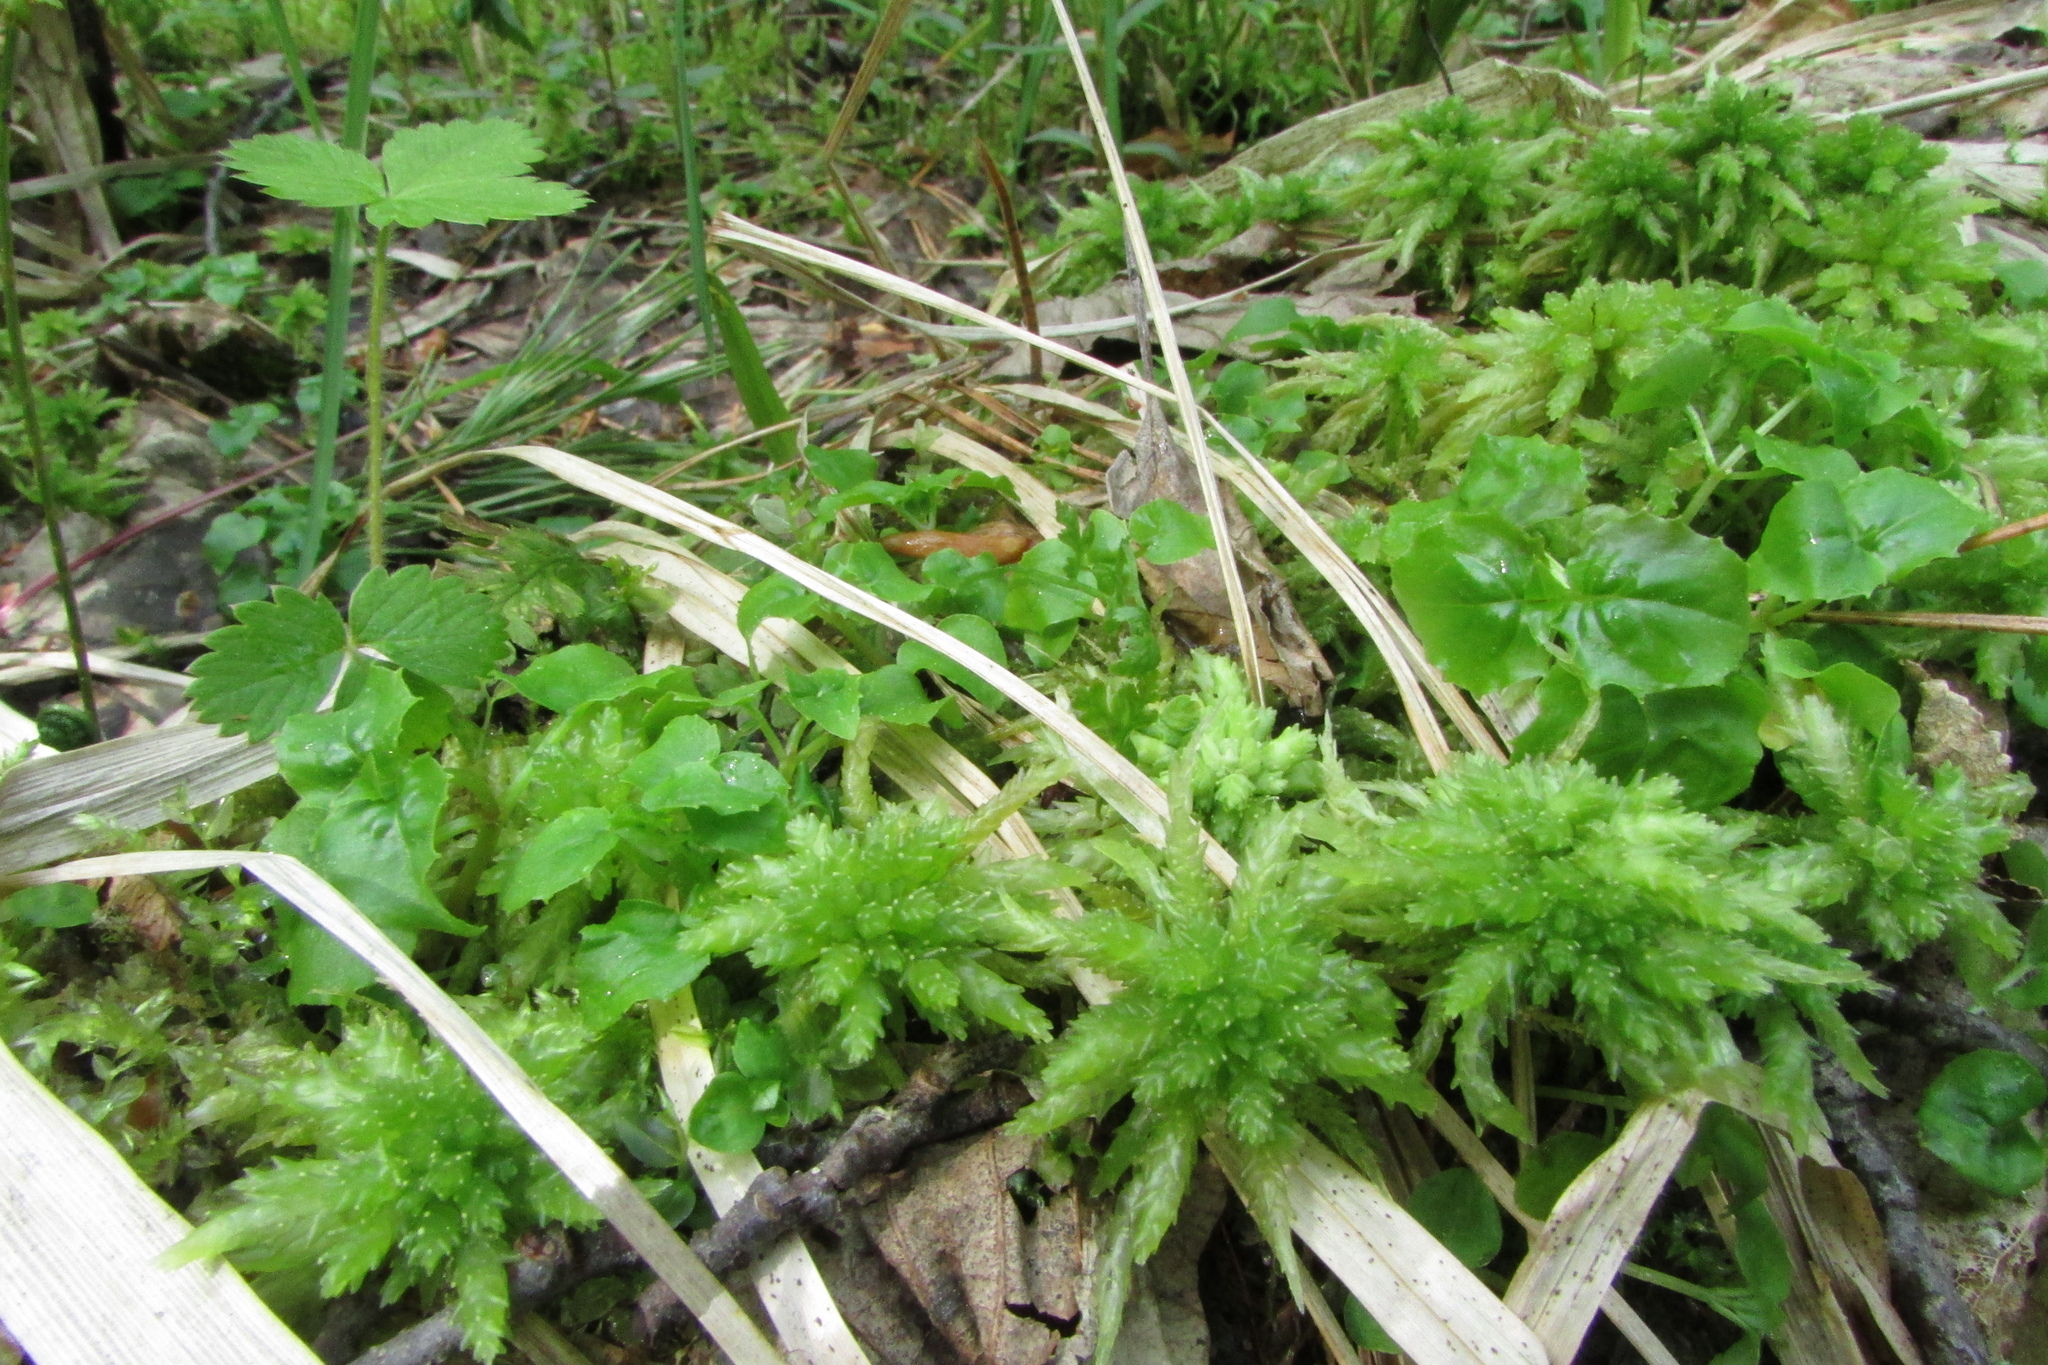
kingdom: Plantae
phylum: Tracheophyta
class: Magnoliopsida
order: Myrtales
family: Onagraceae
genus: Circaea
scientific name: Circaea alpina
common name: Alpine enchanter's-nightshade
